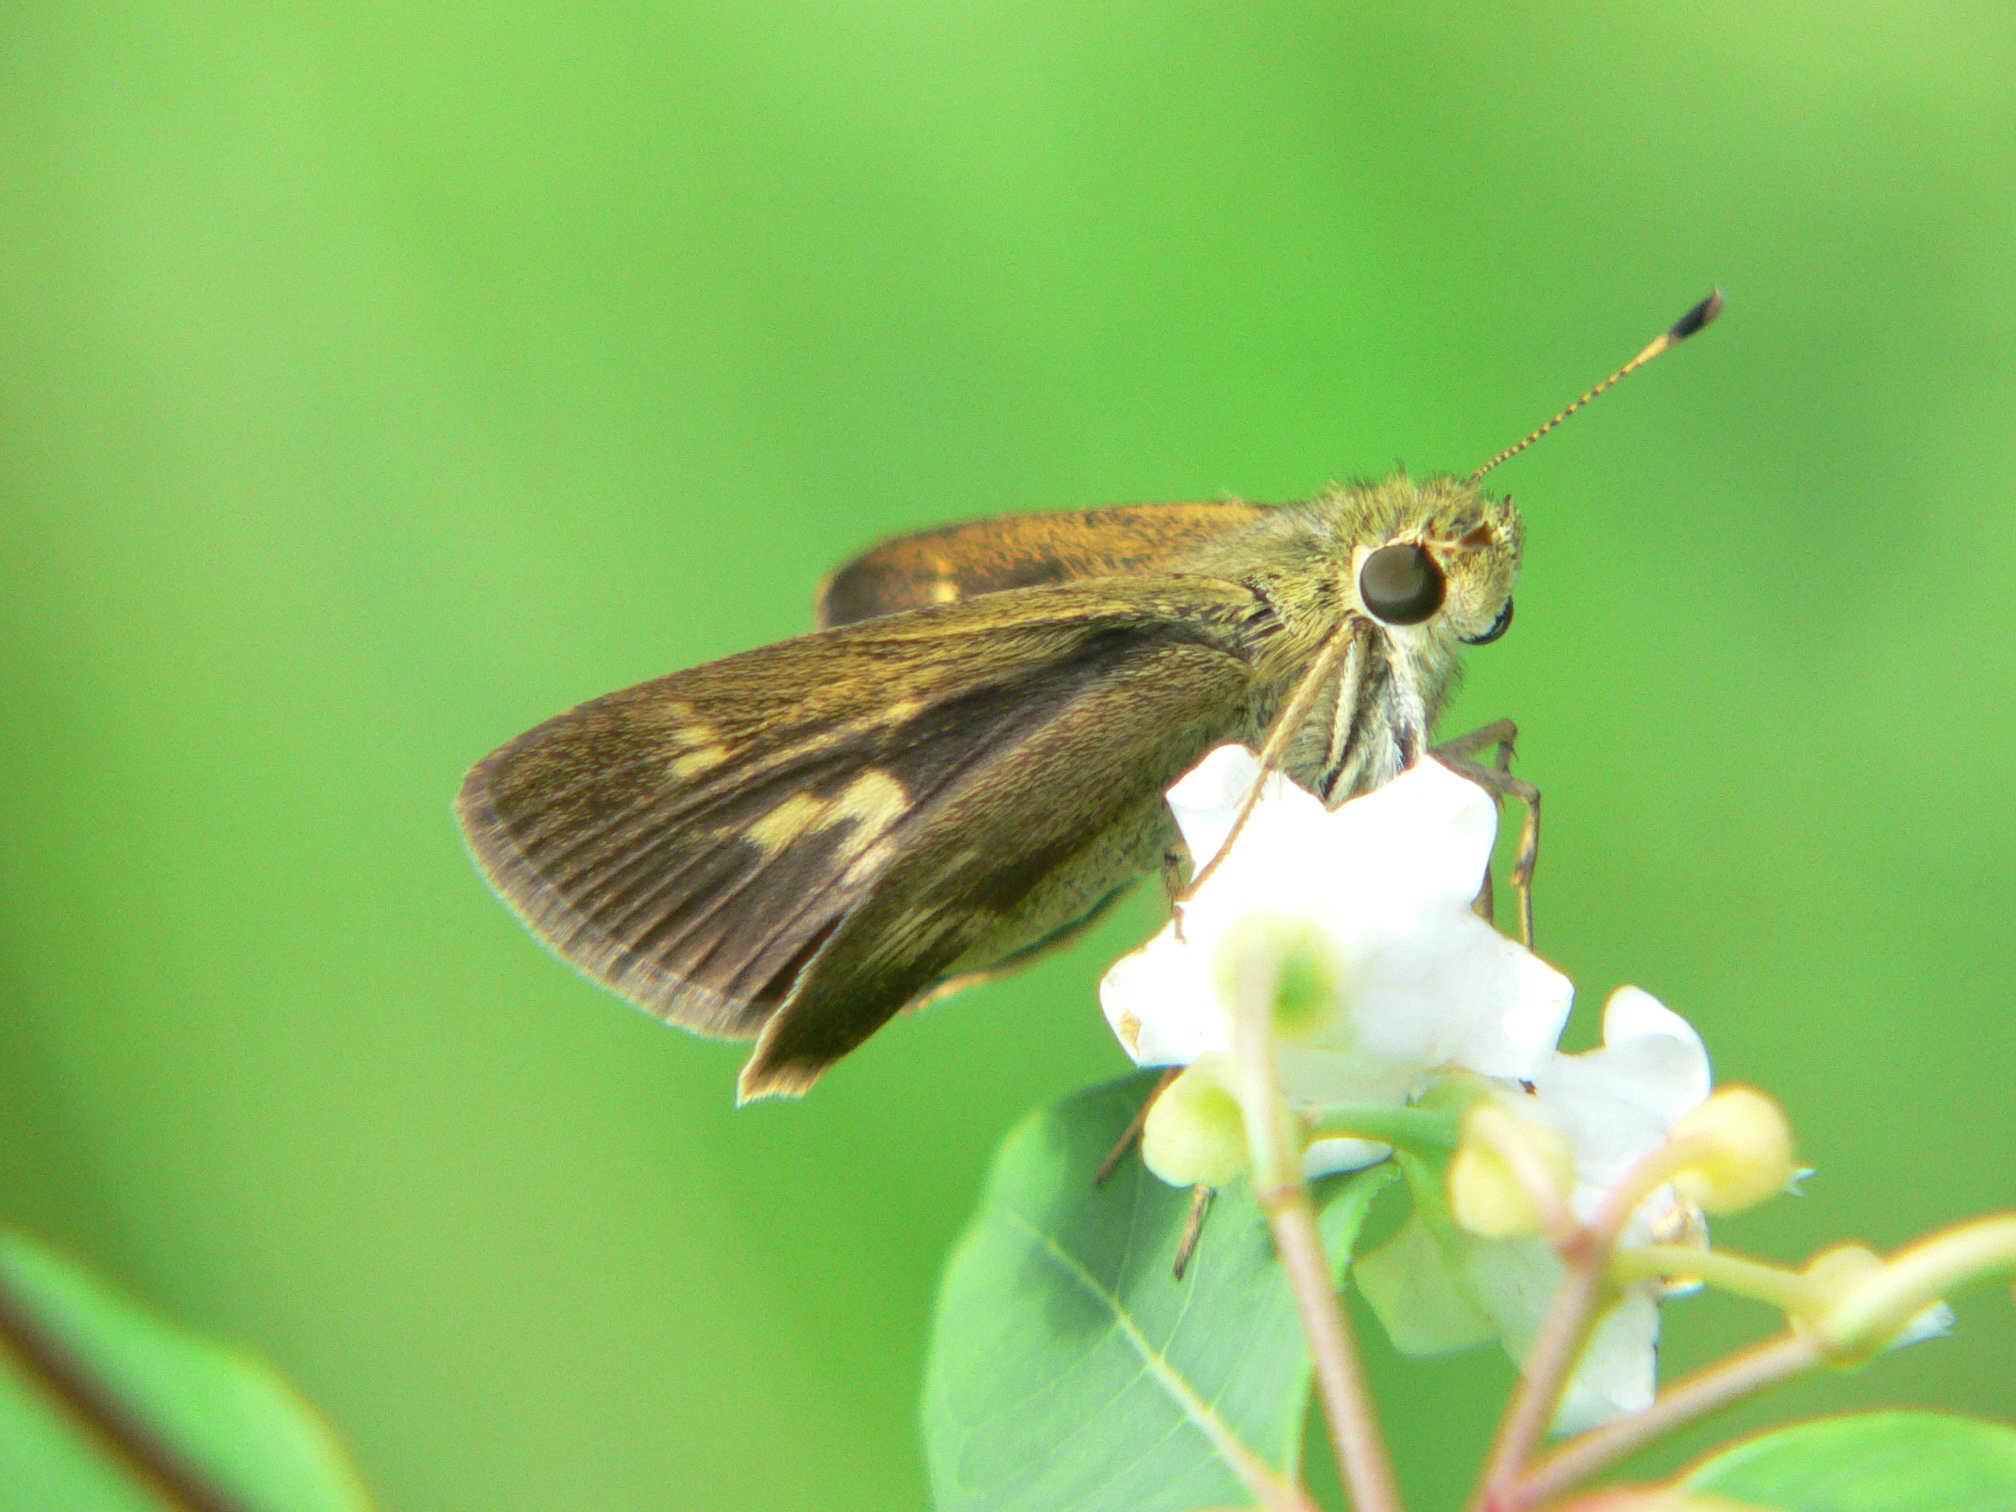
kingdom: Animalia
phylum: Arthropoda
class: Insecta
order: Lepidoptera
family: Hesperiidae
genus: Polites
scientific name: Polites egeremet
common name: Northern broken-dash
